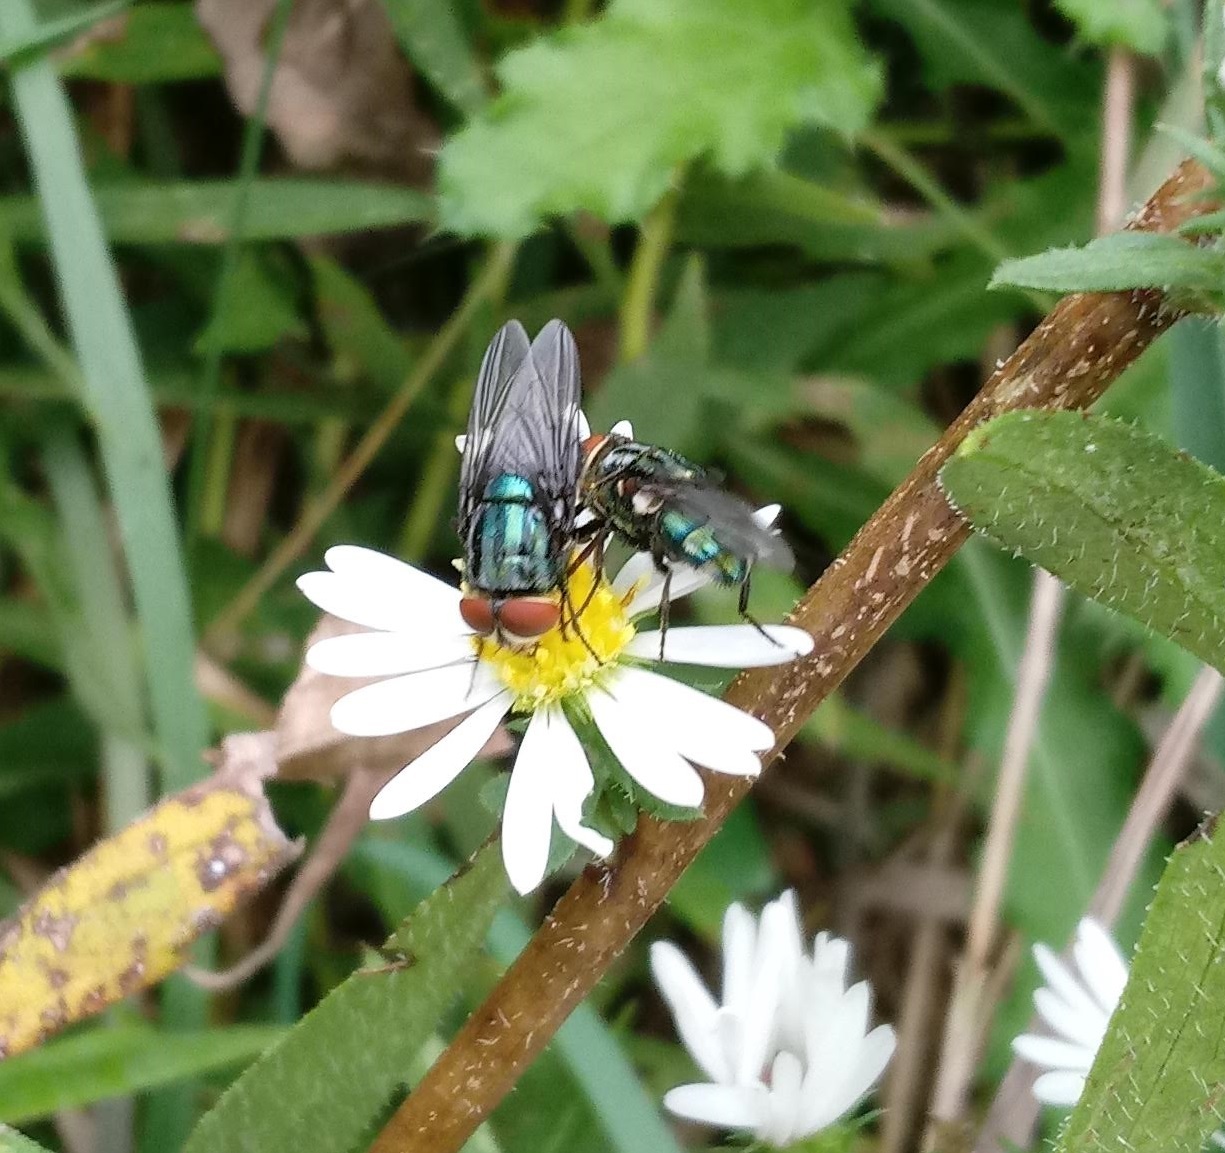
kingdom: Animalia
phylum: Arthropoda
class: Insecta
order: Diptera
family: Calliphoridae
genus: Cochliomyia
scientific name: Cochliomyia macellaria
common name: Secondary screwworm
